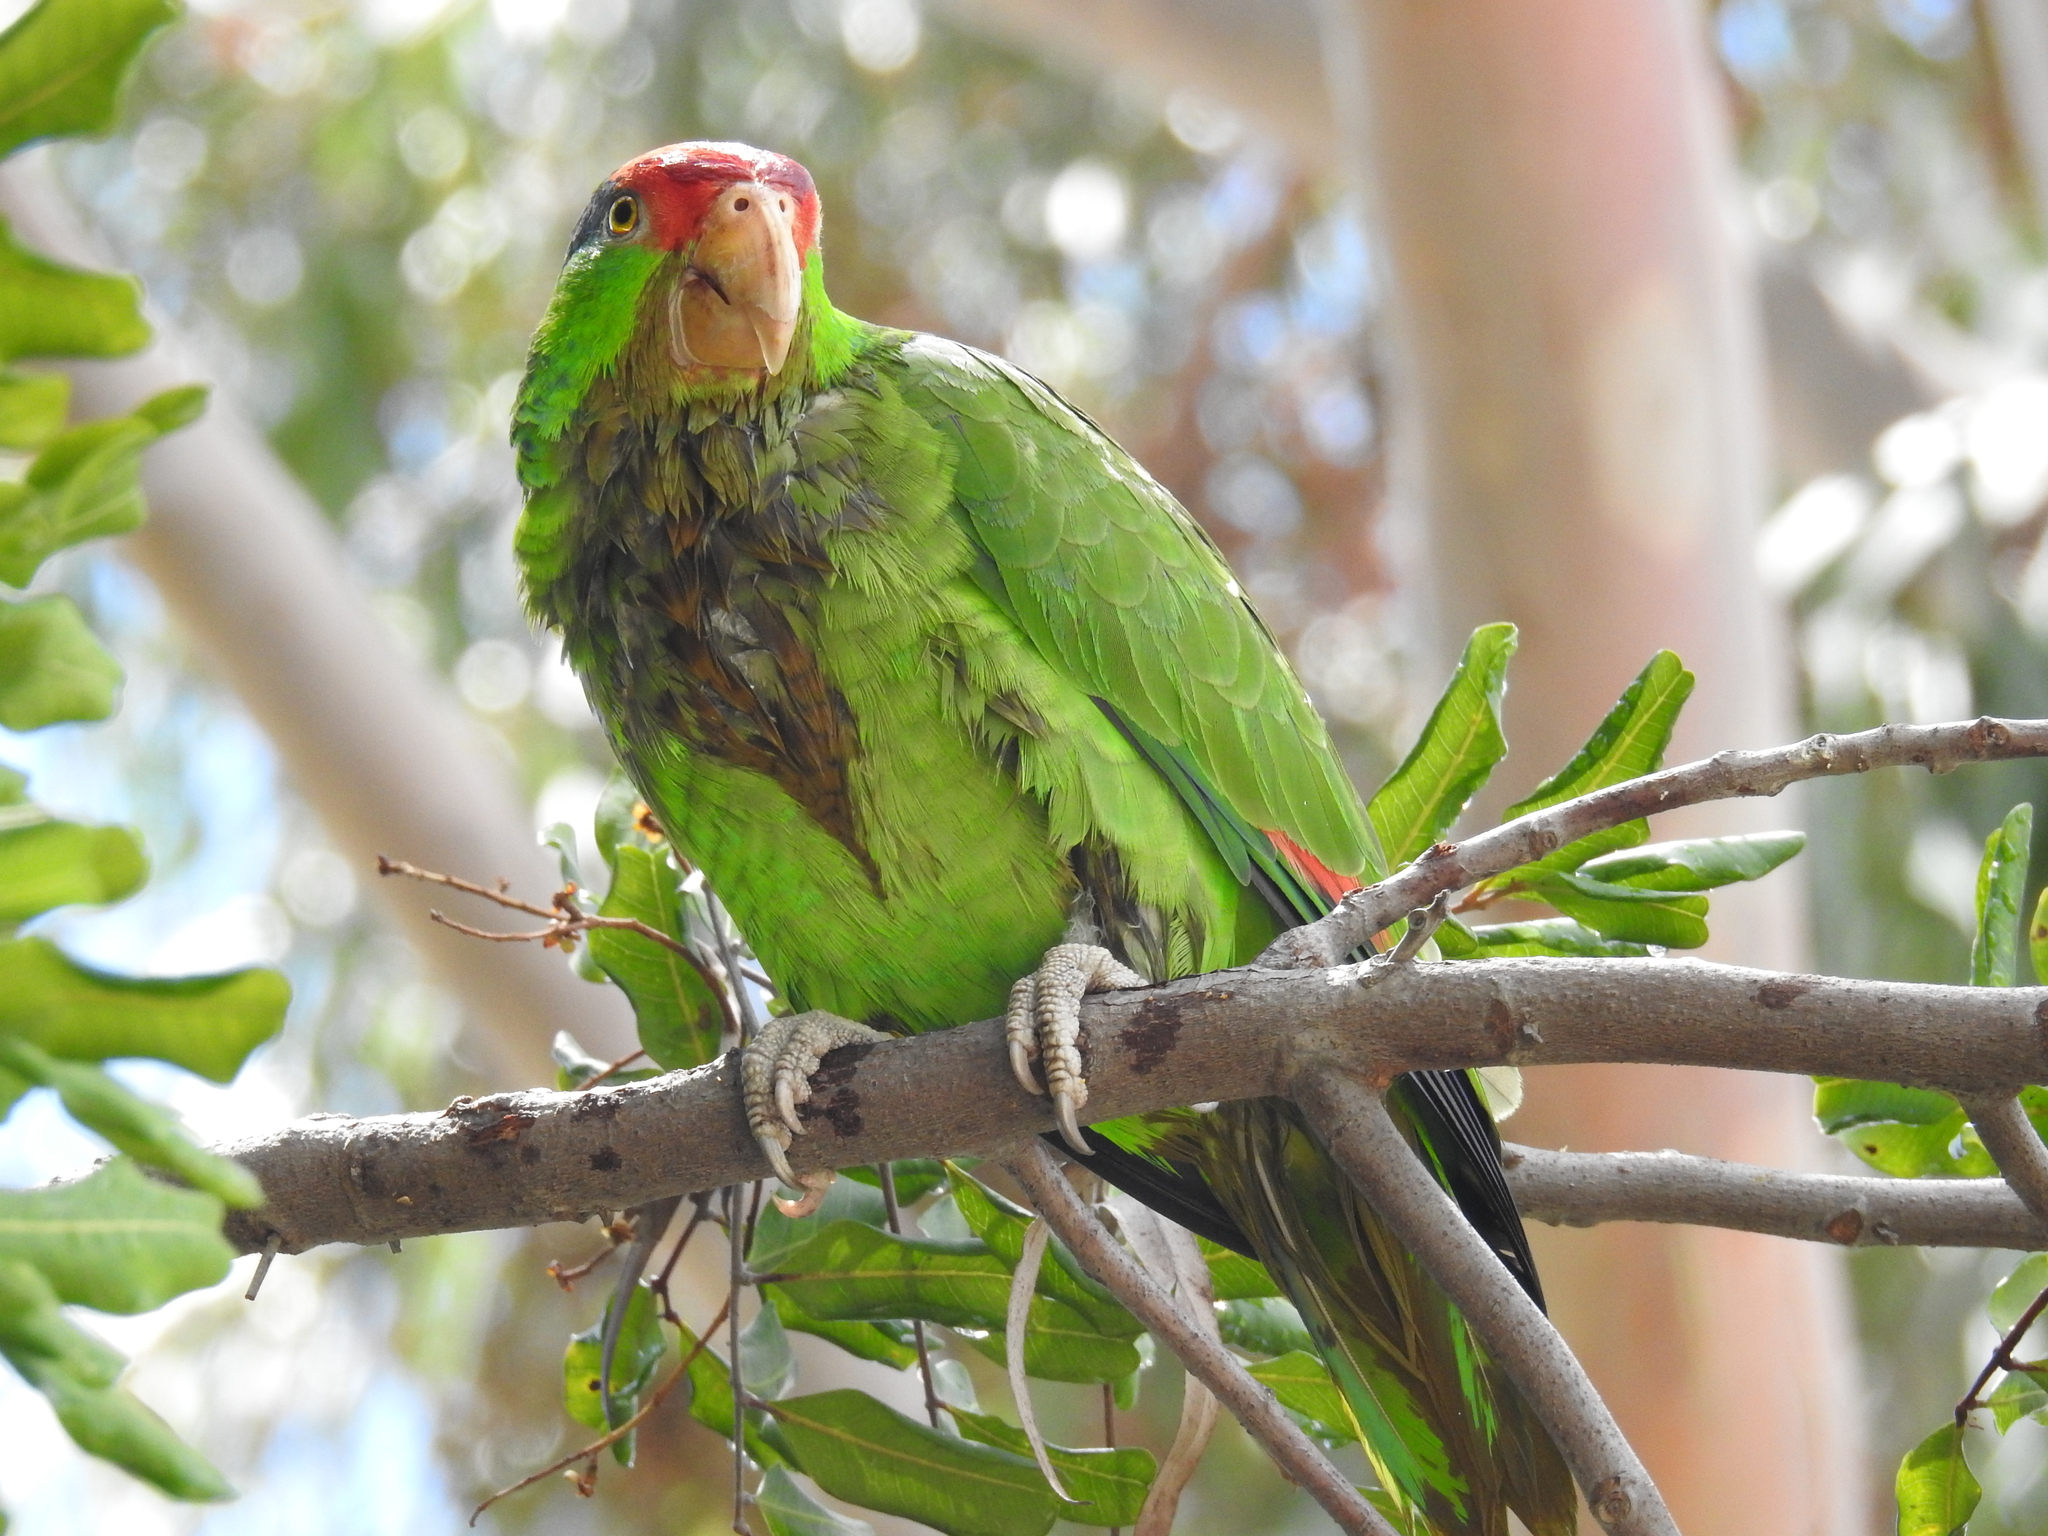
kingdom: Animalia
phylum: Chordata
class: Aves
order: Psittaciformes
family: Psittacidae
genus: Amazona
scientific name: Amazona viridigenalis
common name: Red-crowned amazon
